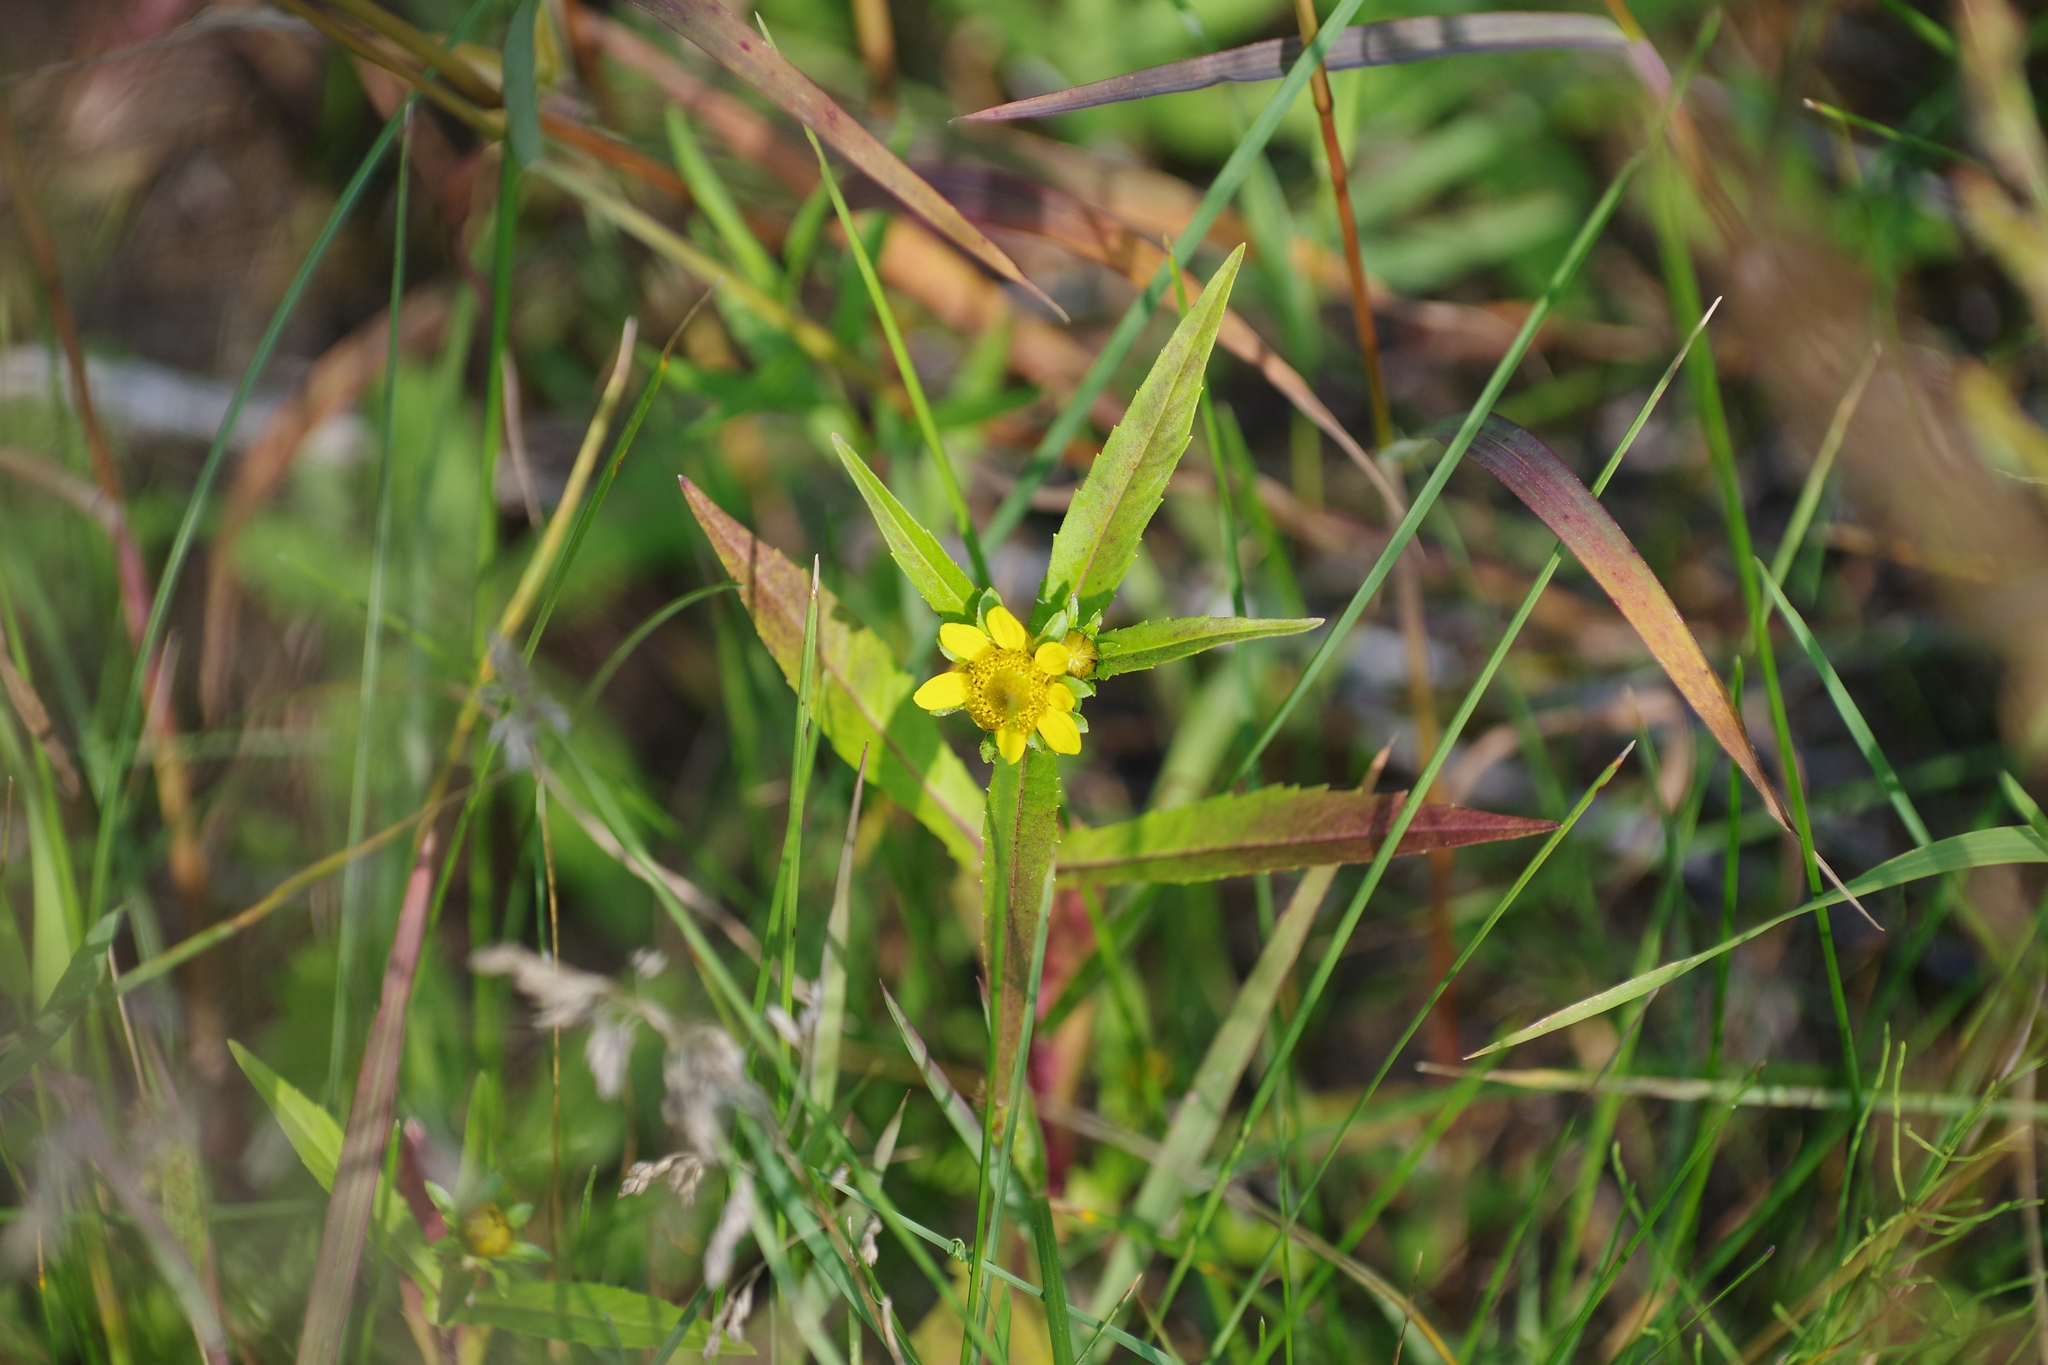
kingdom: Plantae
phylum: Tracheophyta
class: Magnoliopsida
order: Asterales
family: Asteraceae
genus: Bidens
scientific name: Bidens cernua
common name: Nodding bur-marigold
